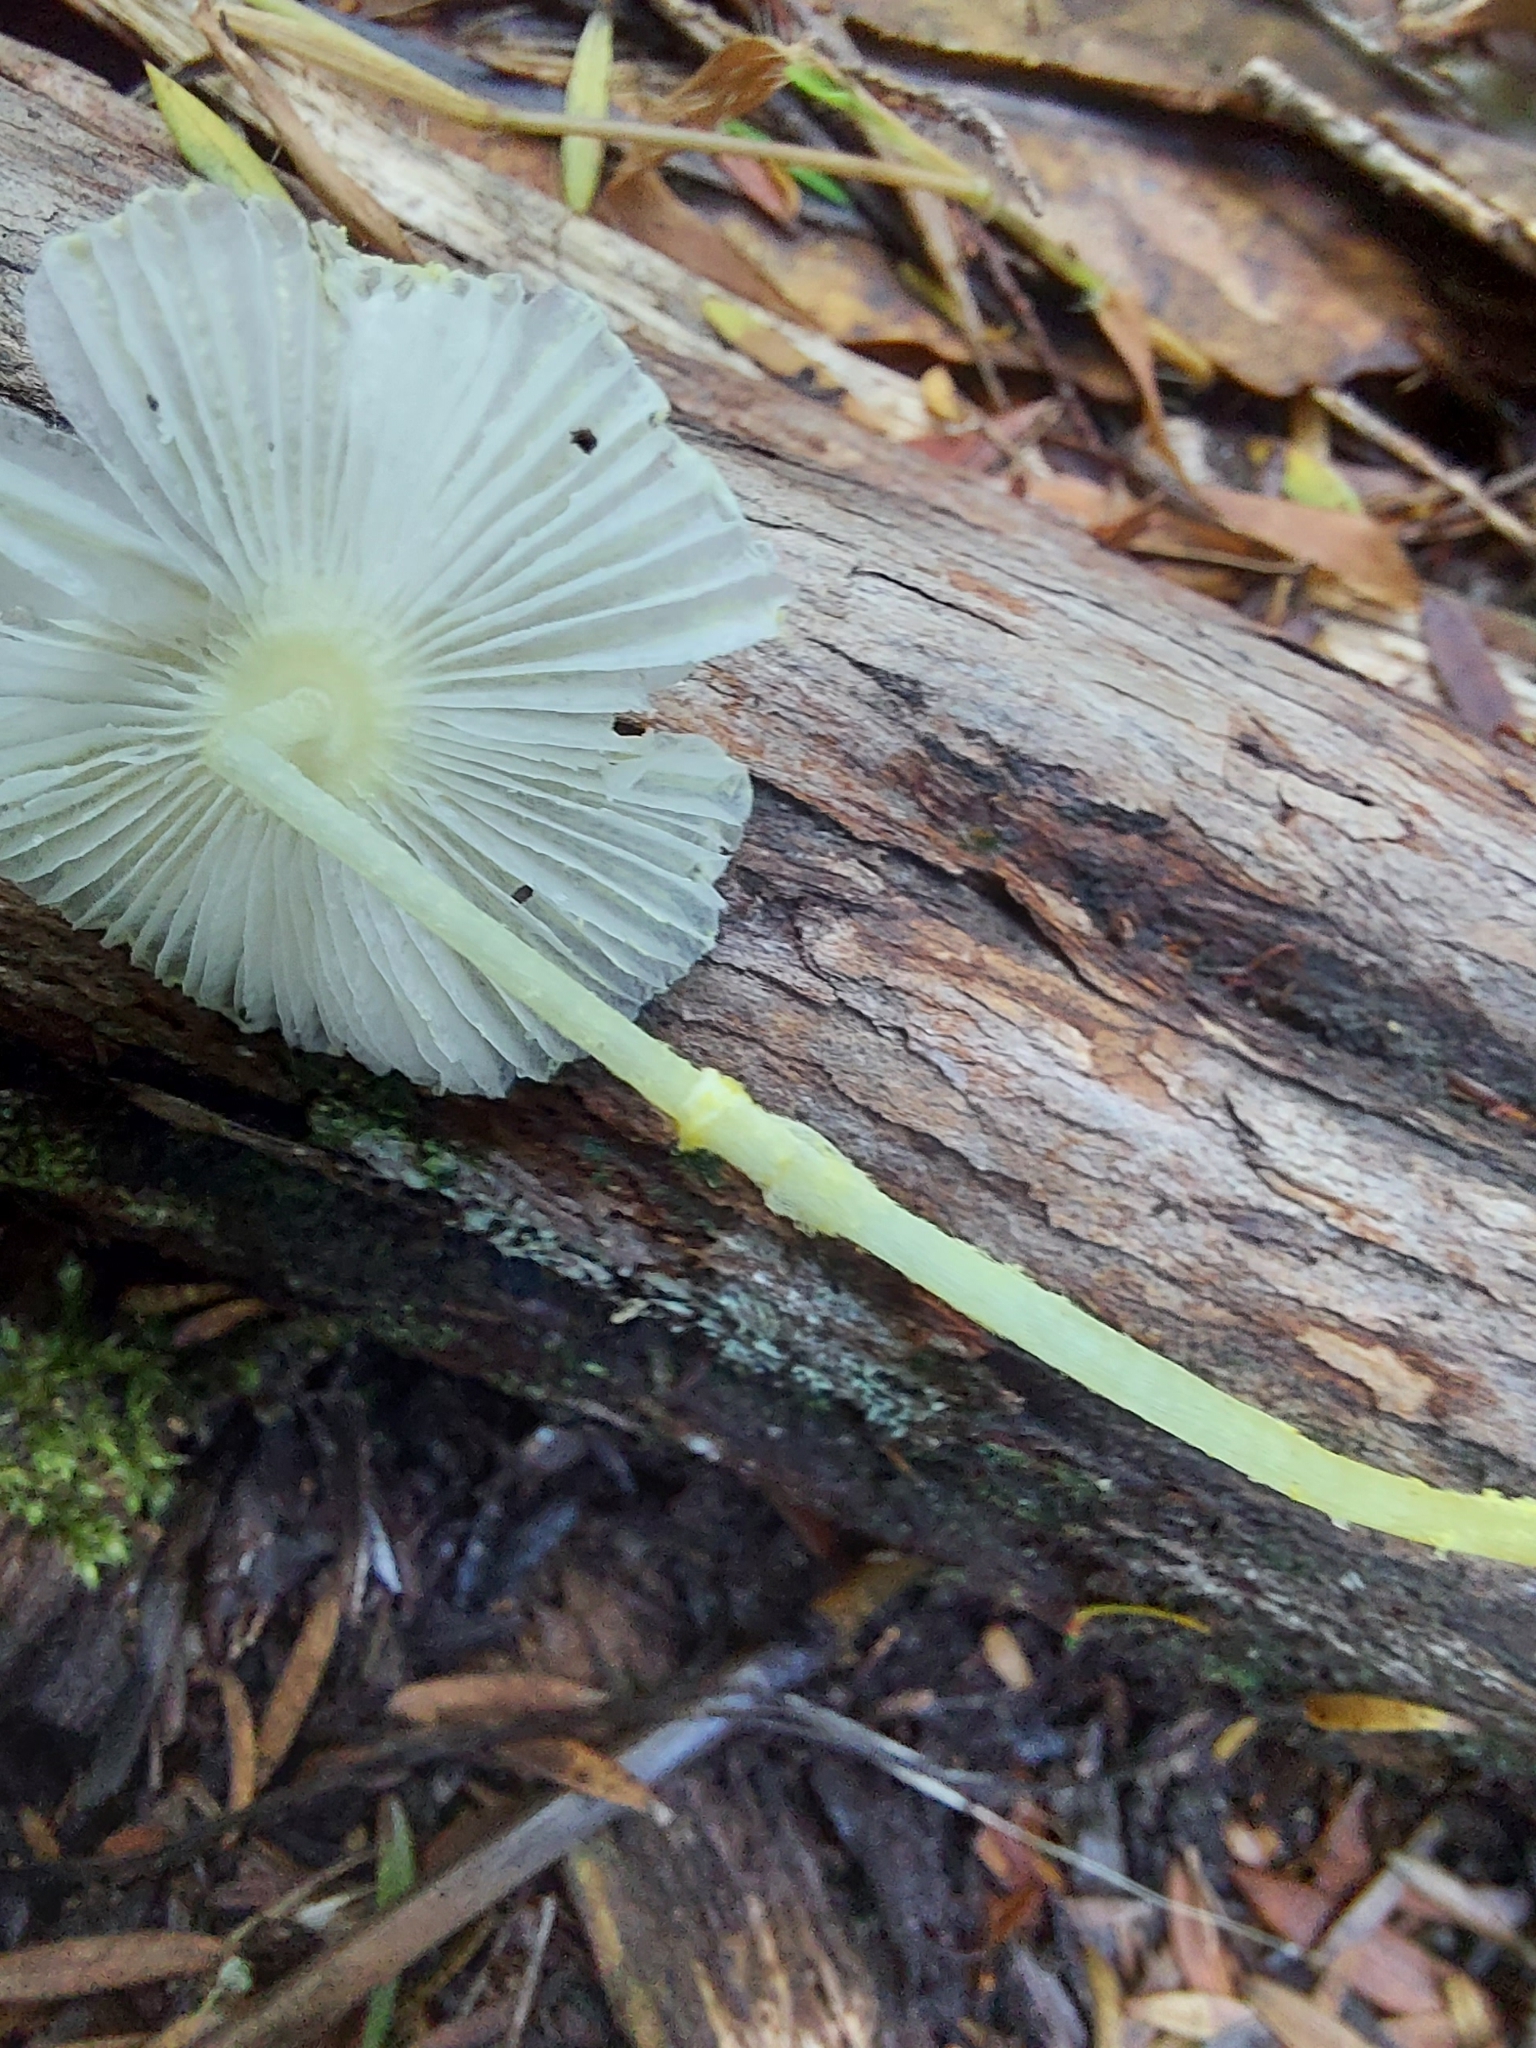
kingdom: Fungi
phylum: Basidiomycota
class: Agaricomycetes
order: Agaricales
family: Agaricaceae
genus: Leucocoprinus
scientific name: Leucocoprinus fragilissimus
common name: Fragile dapperling
